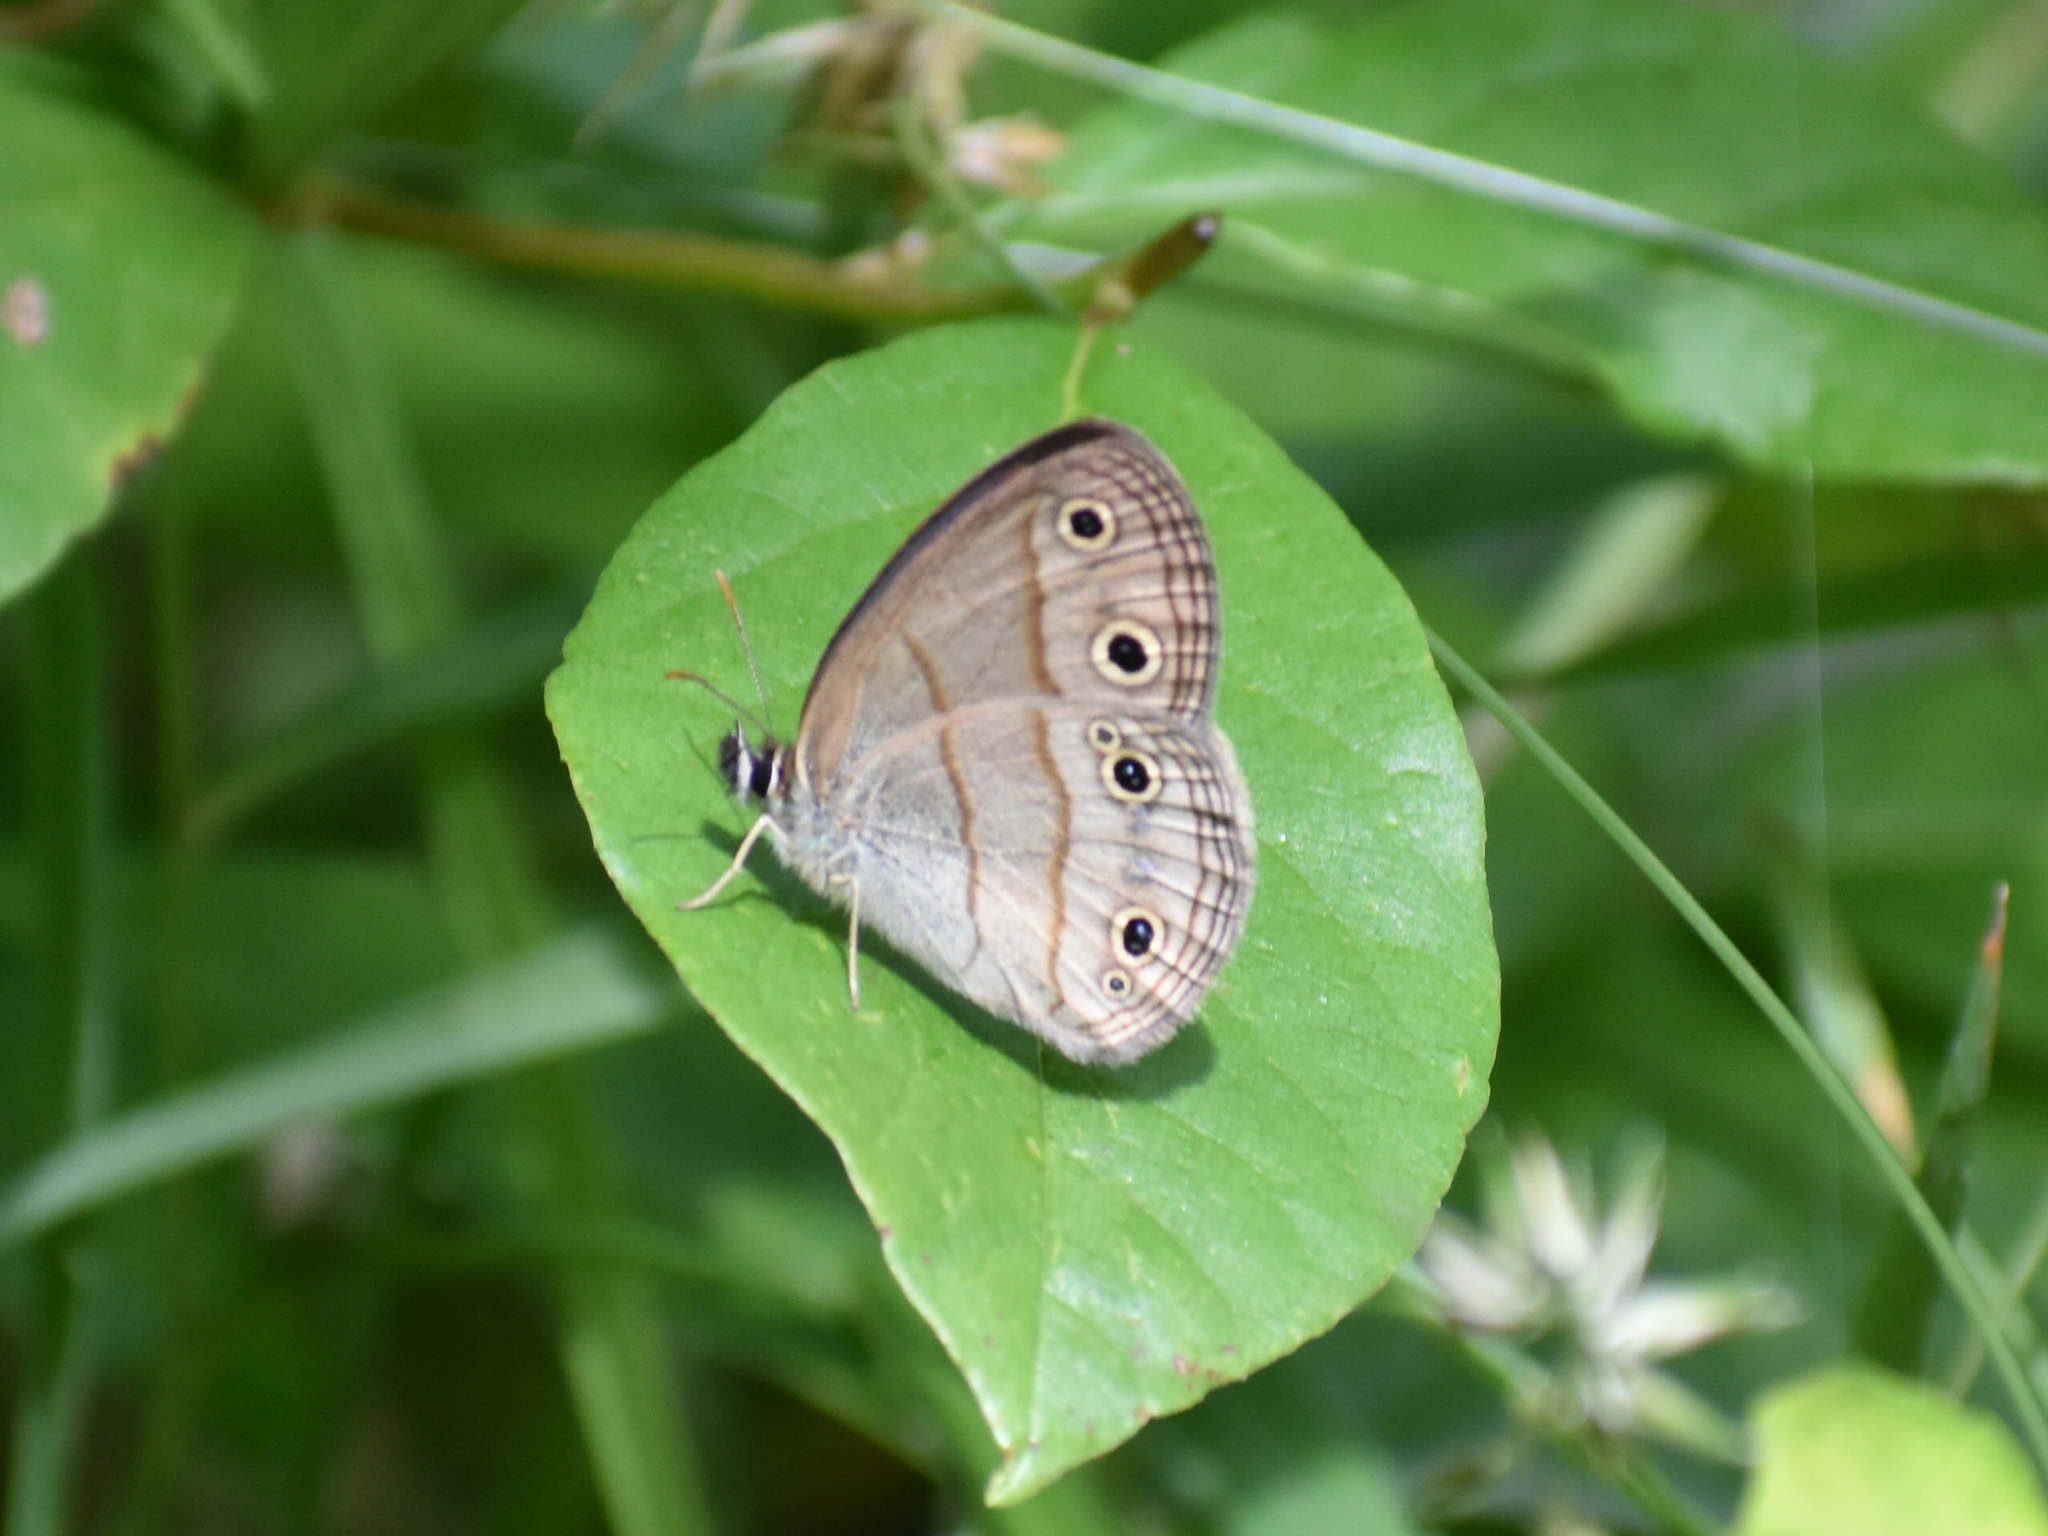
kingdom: Animalia
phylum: Arthropoda
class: Insecta
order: Lepidoptera
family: Nymphalidae
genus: Euptychia
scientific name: Euptychia cymela
